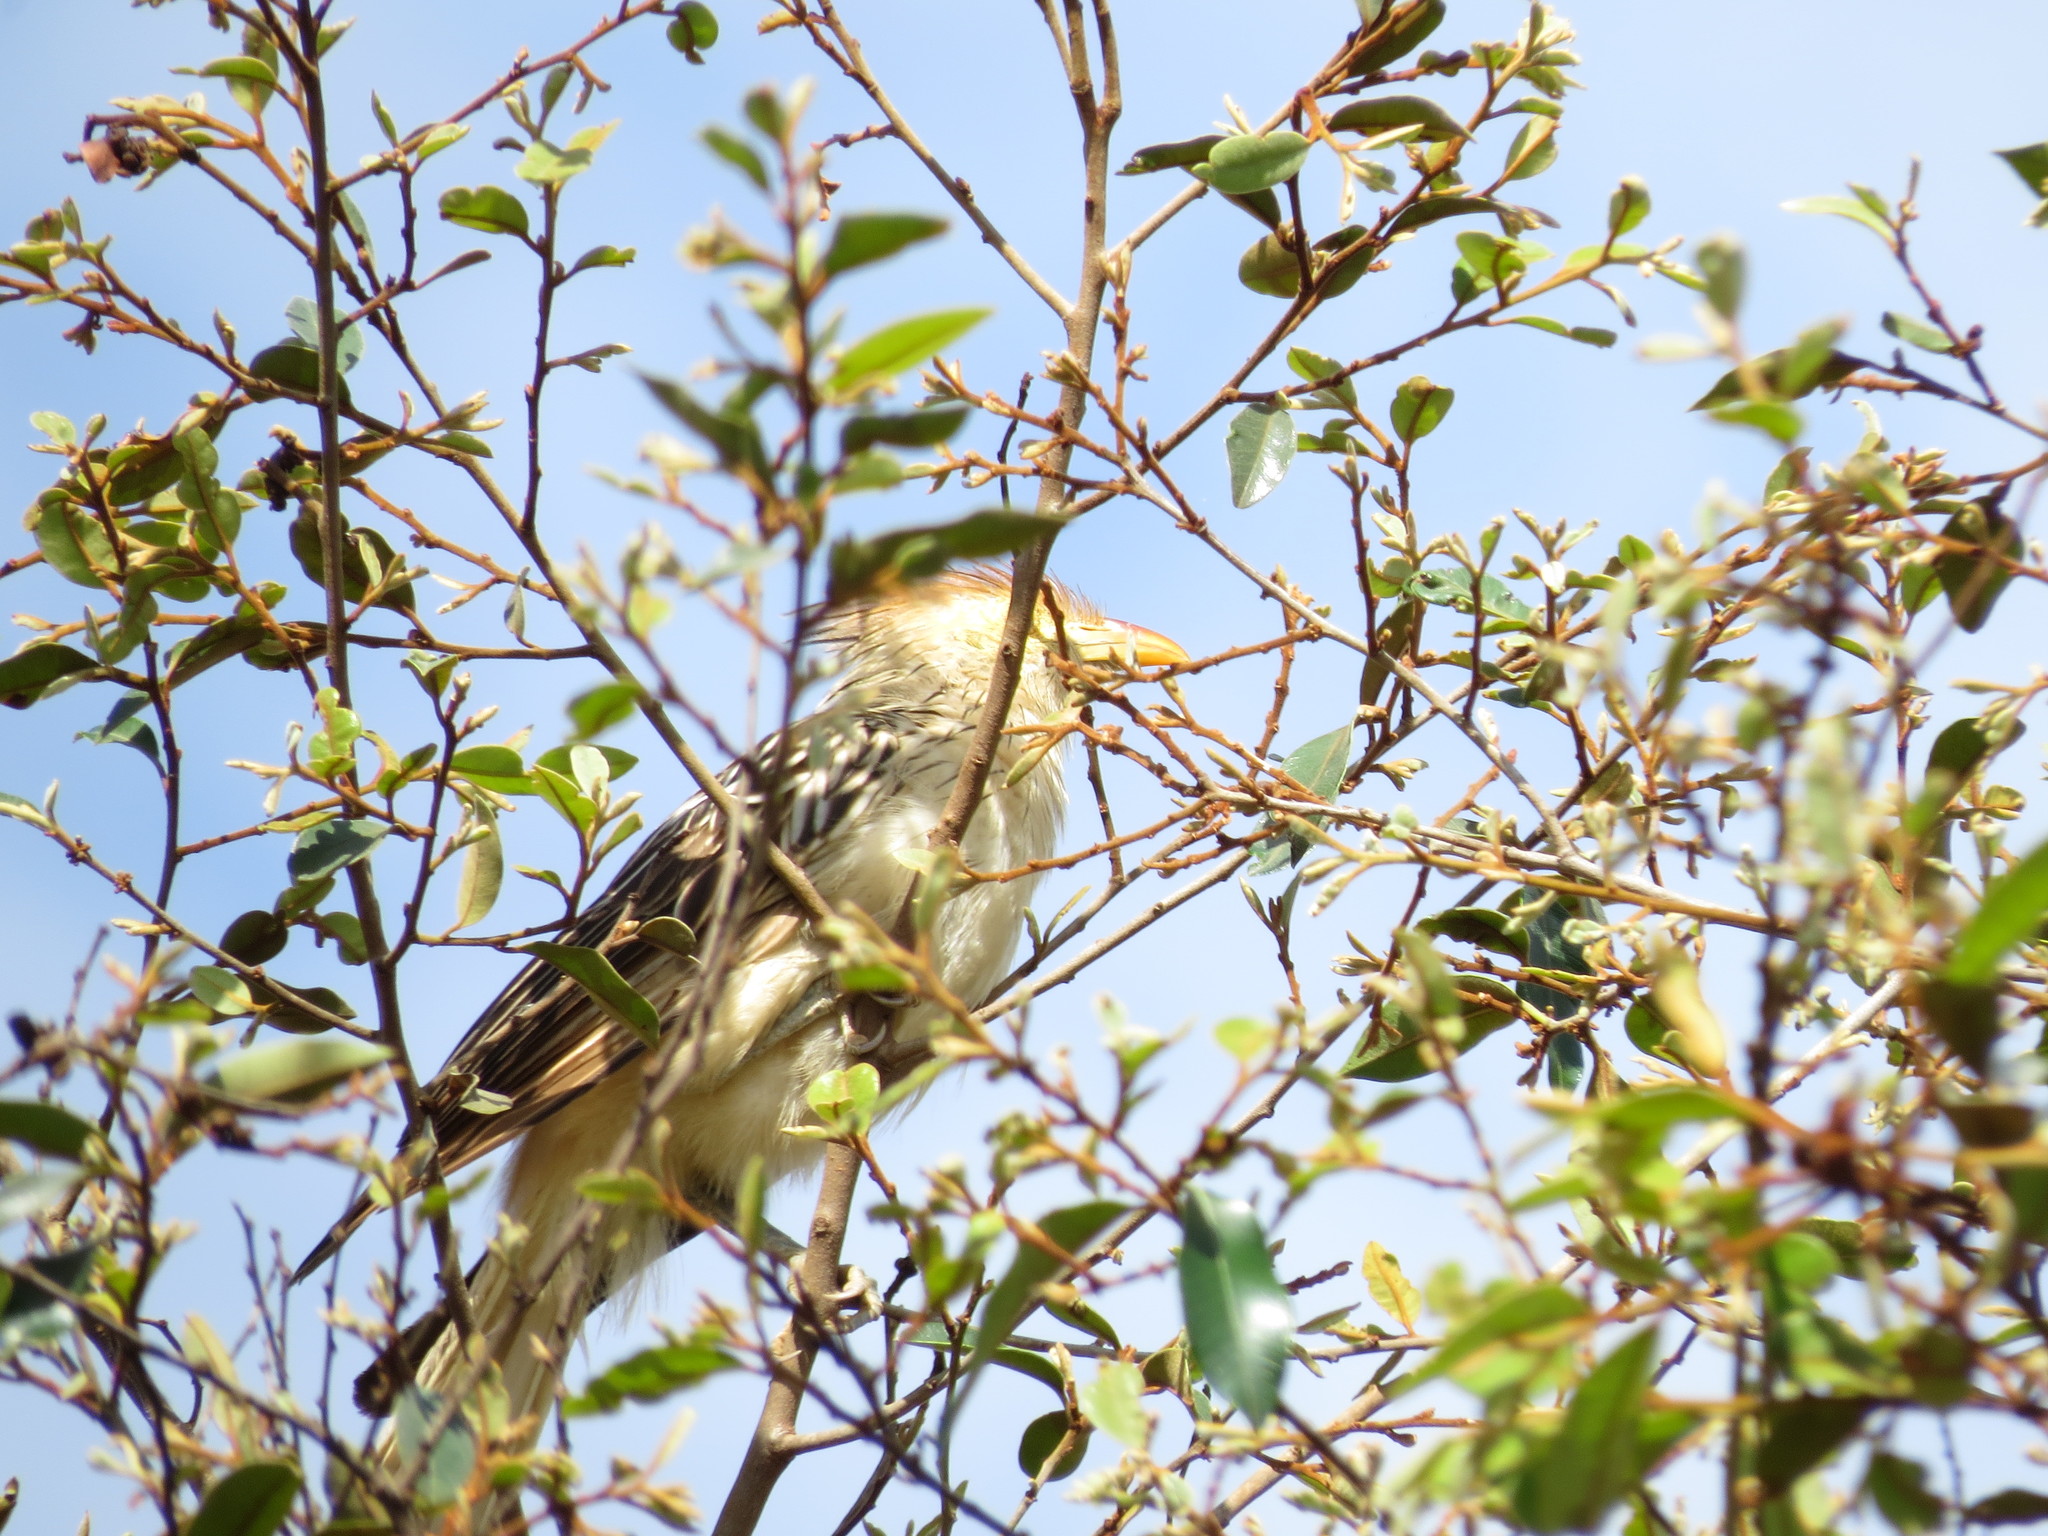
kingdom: Animalia
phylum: Chordata
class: Aves
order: Cuculiformes
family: Cuculidae
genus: Guira
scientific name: Guira guira
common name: Guira cuckoo
